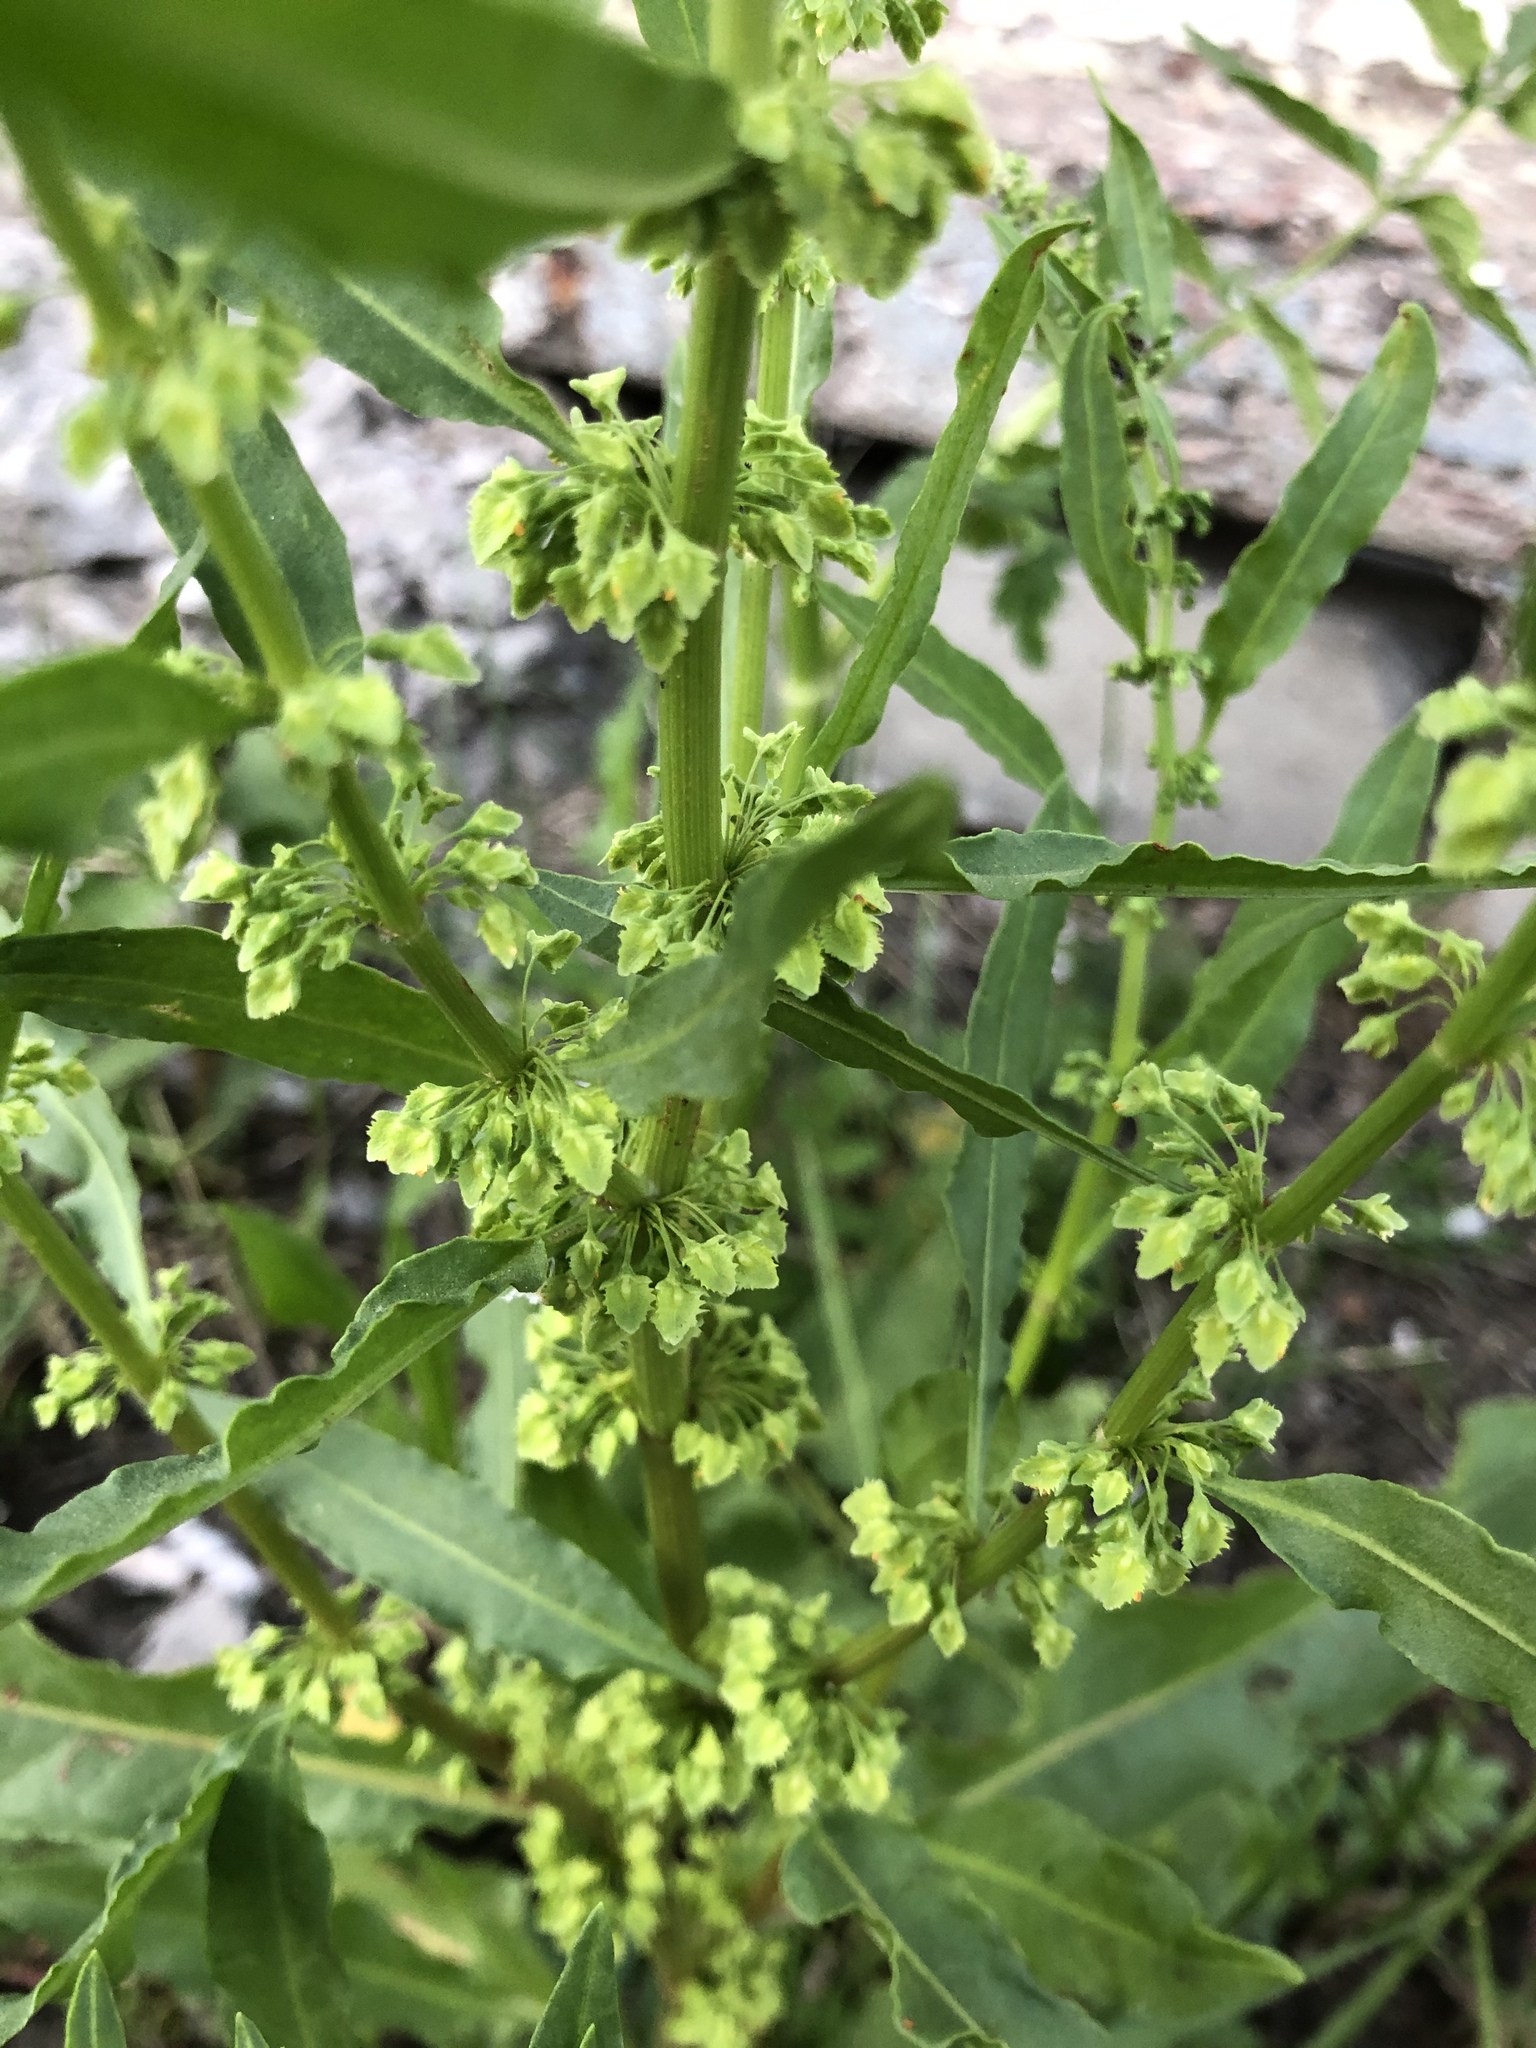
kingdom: Plantae
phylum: Tracheophyta
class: Magnoliopsida
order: Caryophyllales
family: Polygonaceae
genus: Rumex
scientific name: Rumex stenophyllus
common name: Narrowleaf dock
